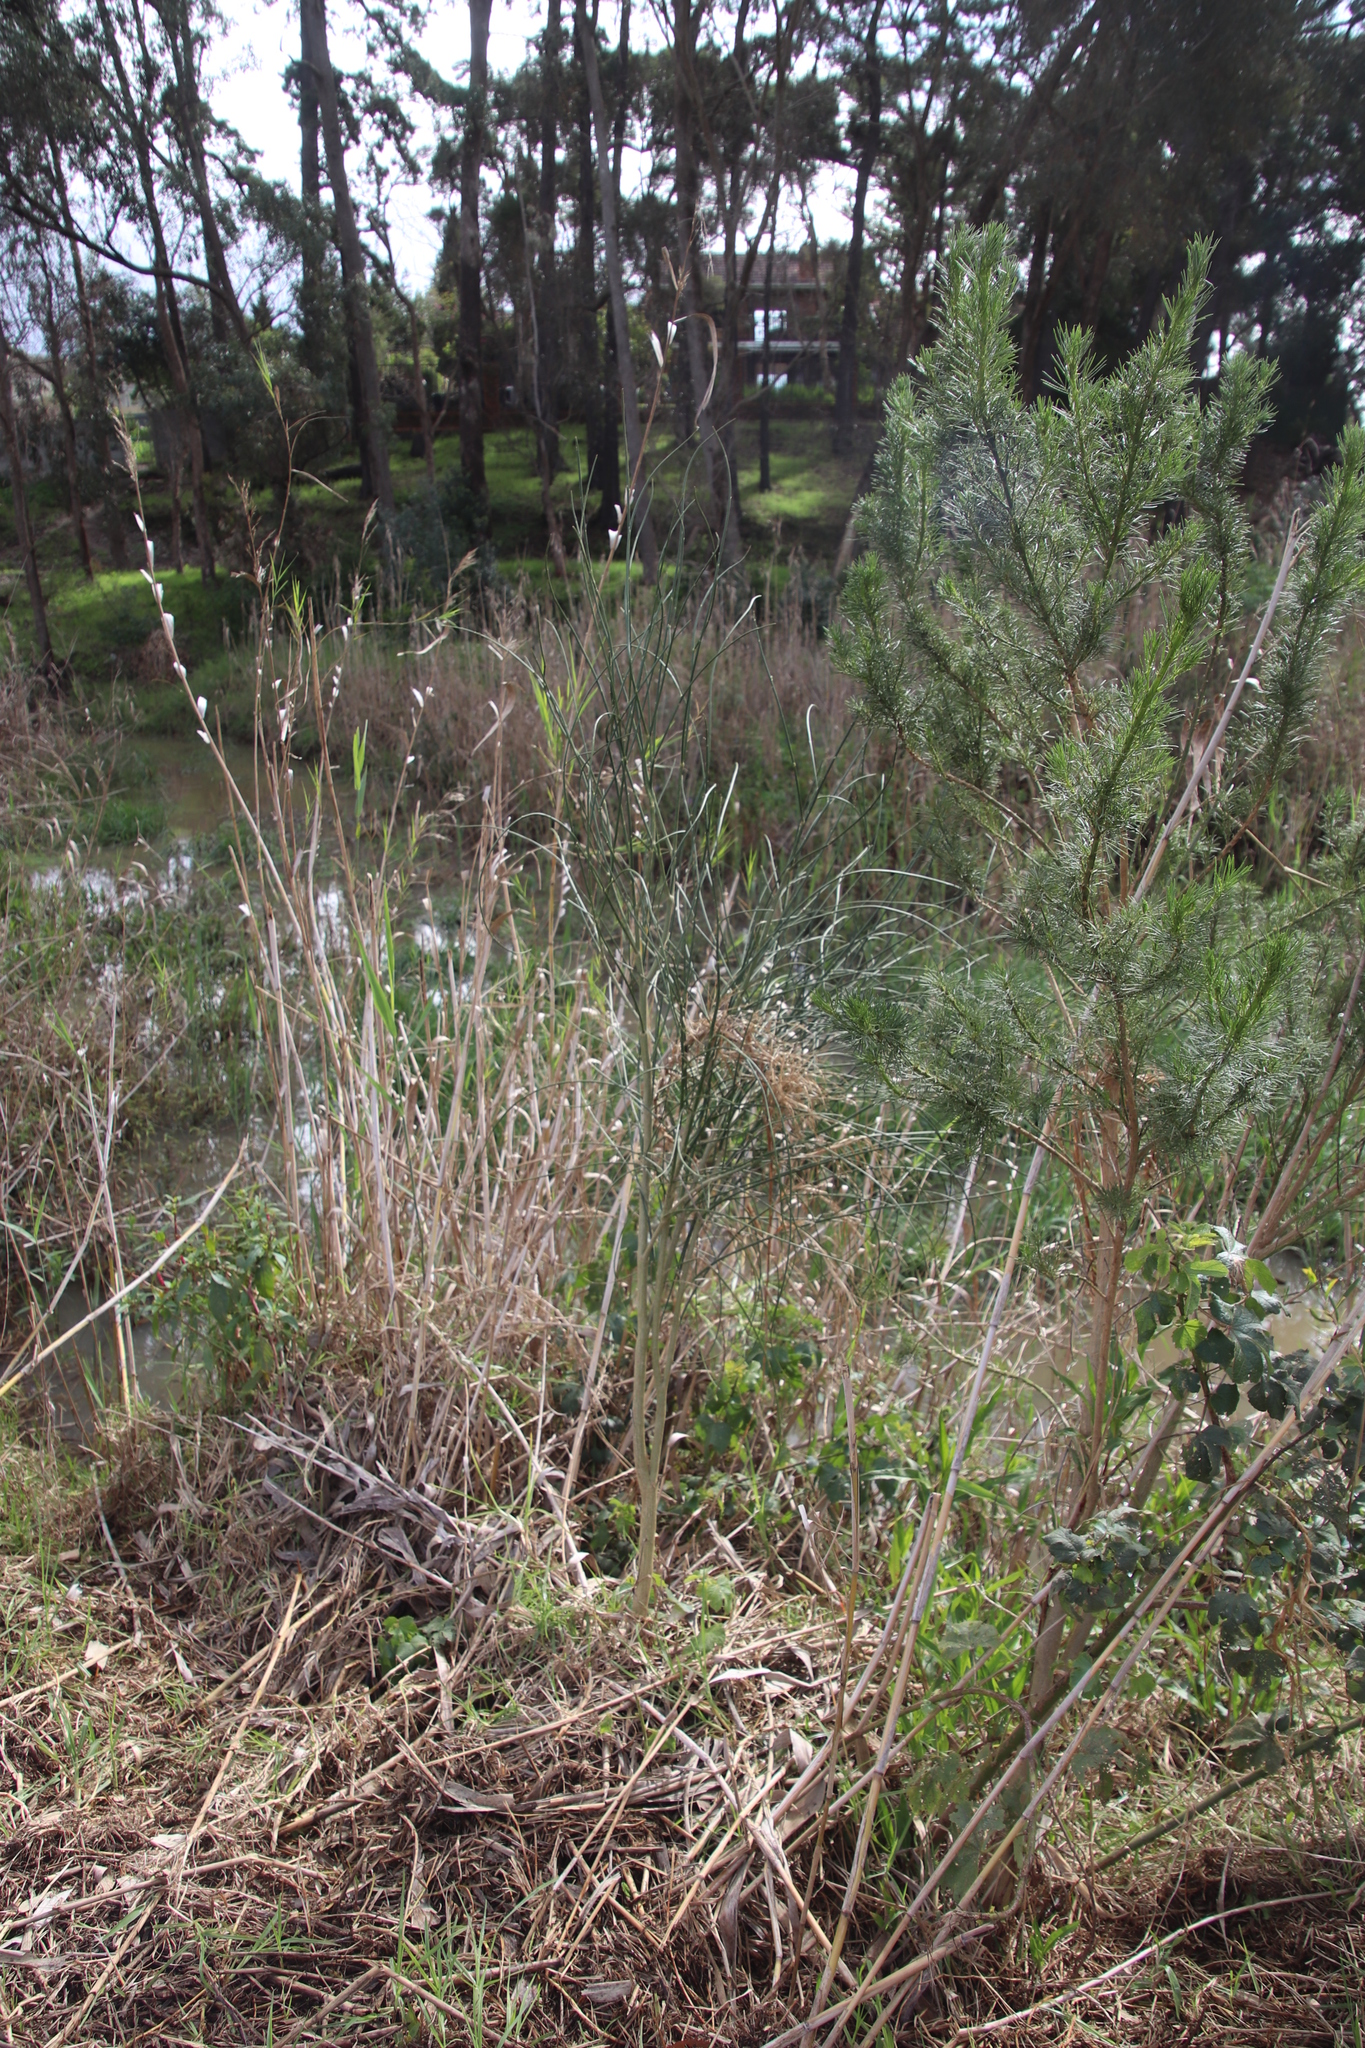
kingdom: Plantae
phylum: Tracheophyta
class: Magnoliopsida
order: Fabales
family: Fabaceae
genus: Spartium
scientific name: Spartium junceum
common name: Spanish broom
